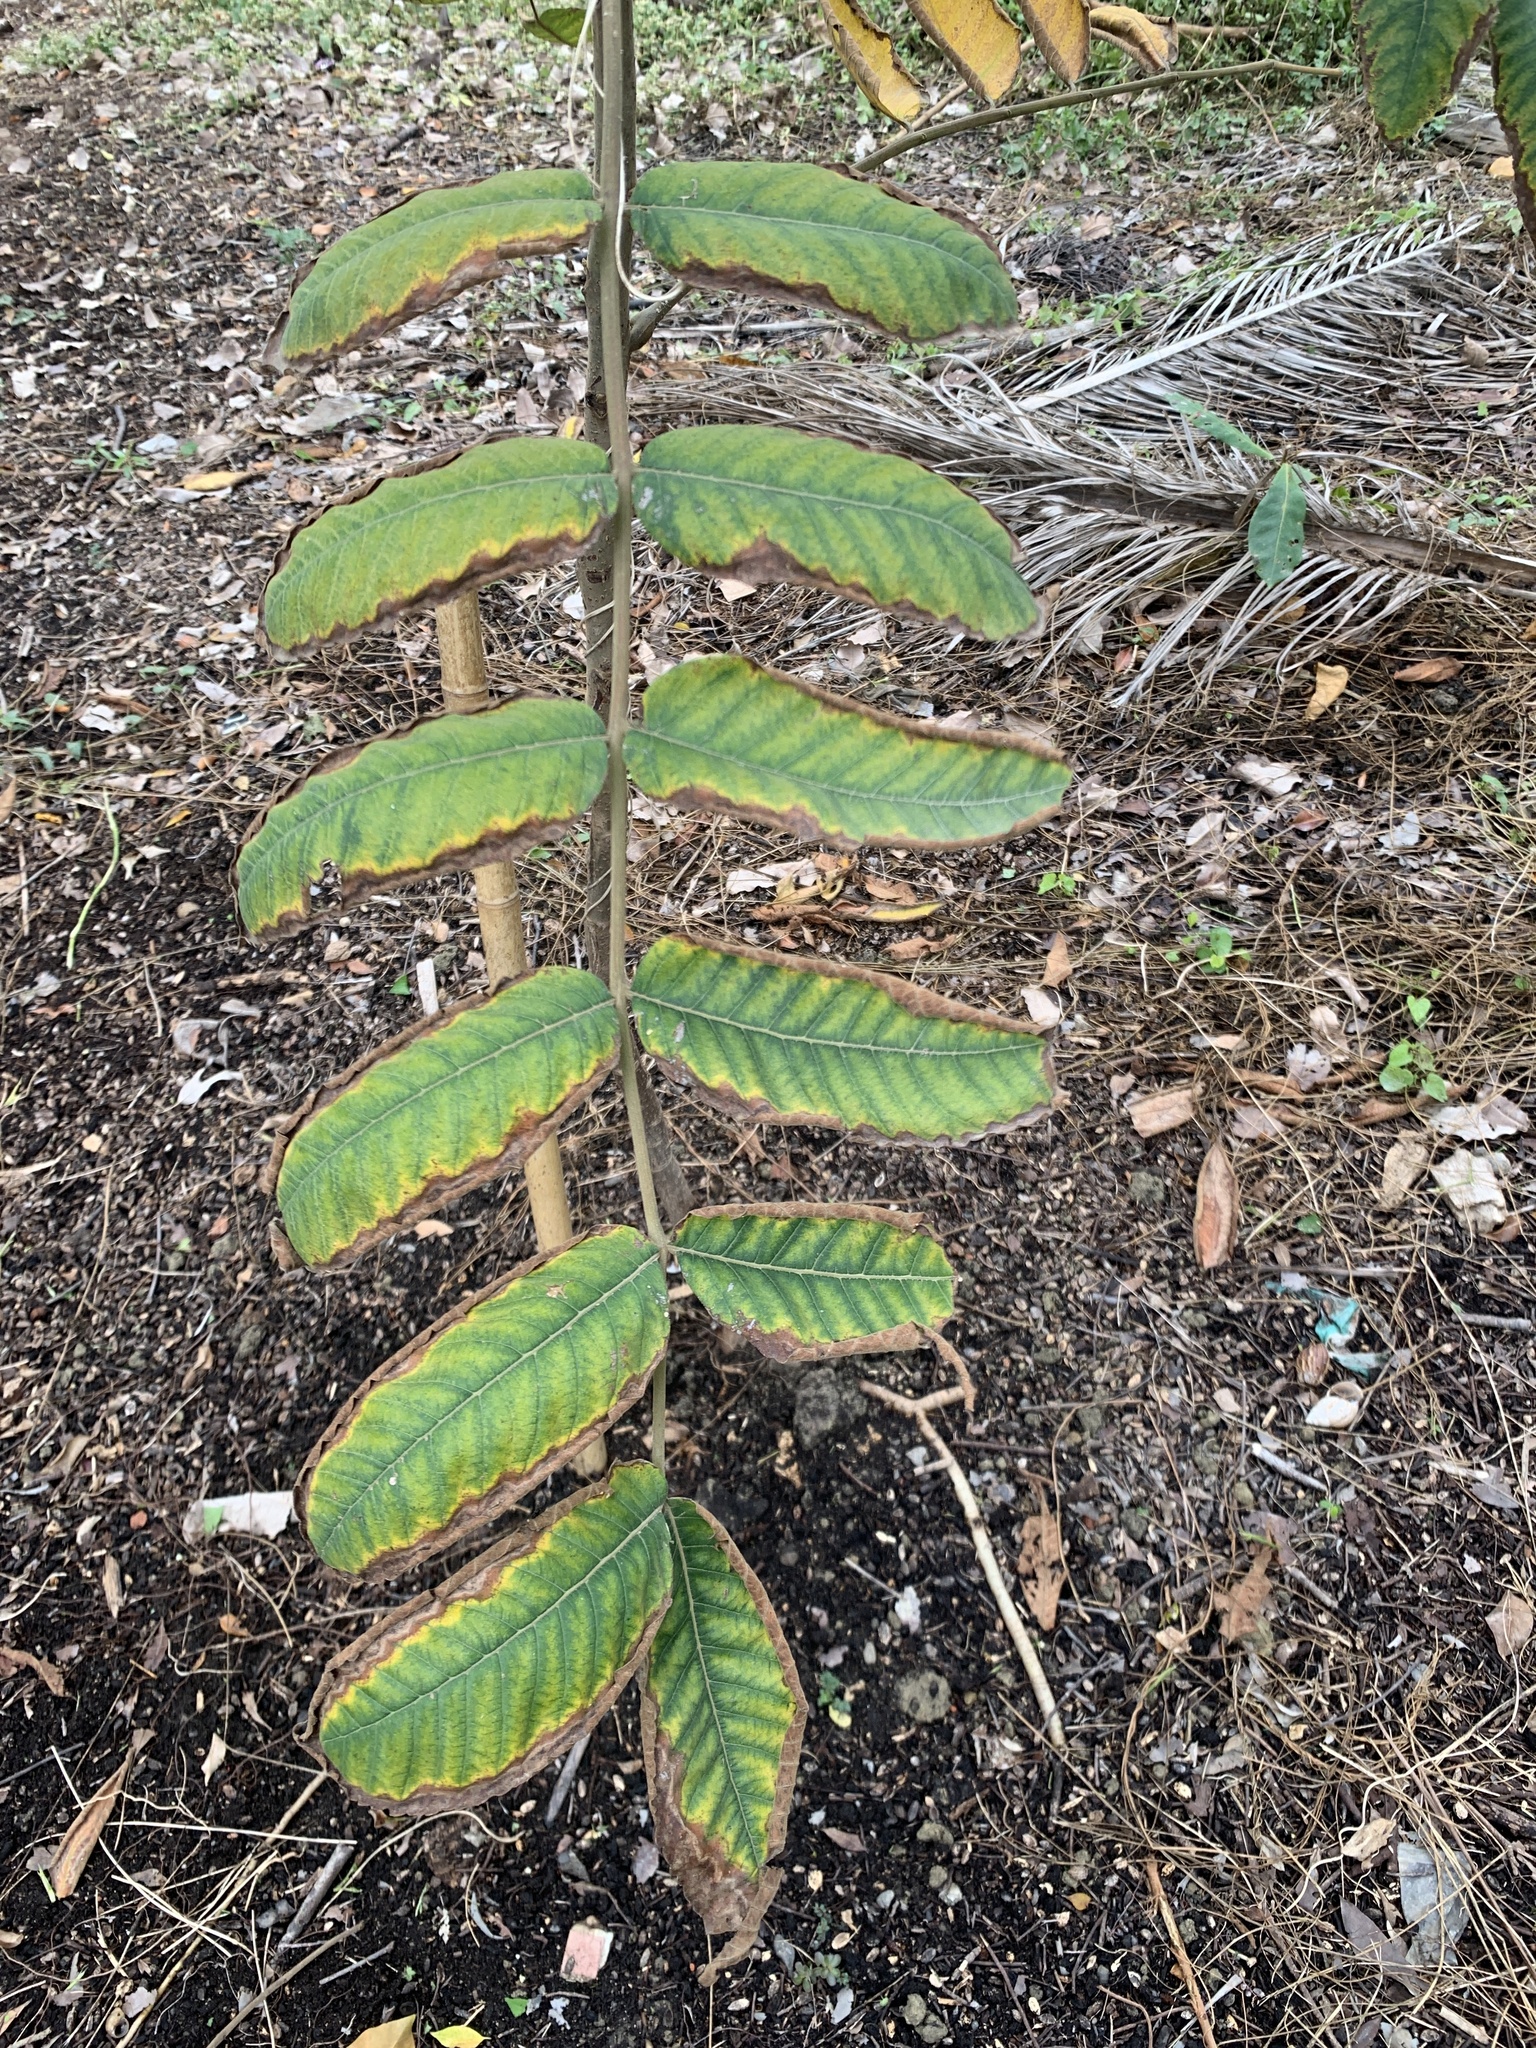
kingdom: Plantae
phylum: Tracheophyta
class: Magnoliopsida
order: Sapindales
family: Anacardiaceae
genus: Rhus
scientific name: Rhus chinensis
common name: Chinese gall
